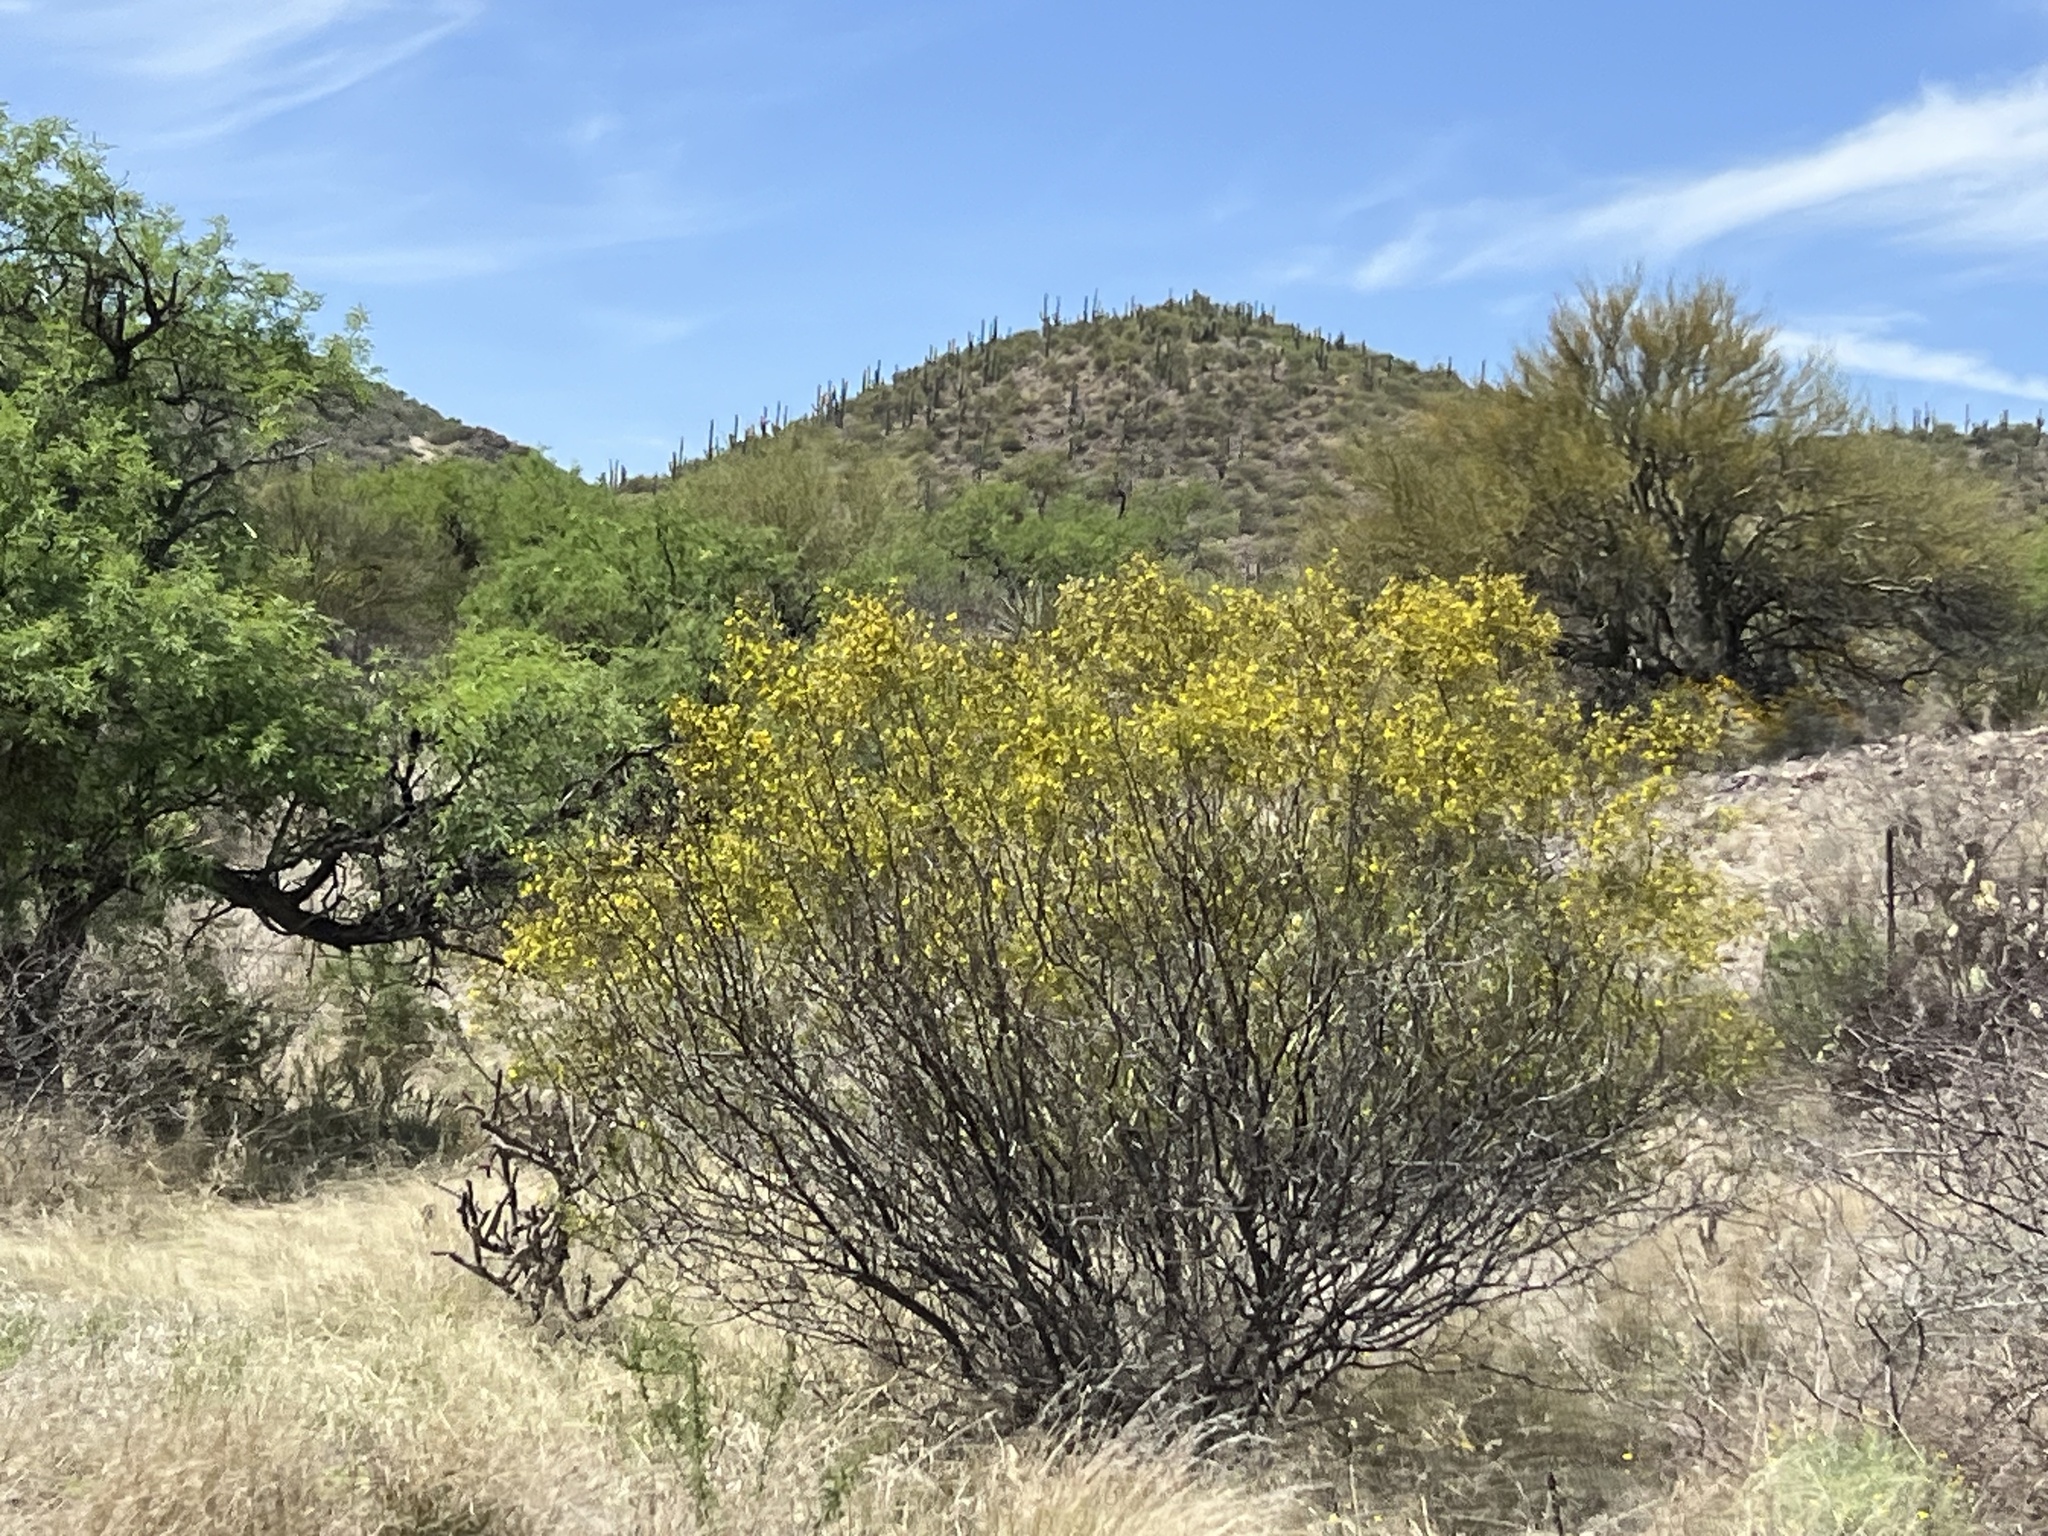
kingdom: Plantae
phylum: Tracheophyta
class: Magnoliopsida
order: Zygophyllales
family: Zygophyllaceae
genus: Larrea
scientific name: Larrea tridentata
